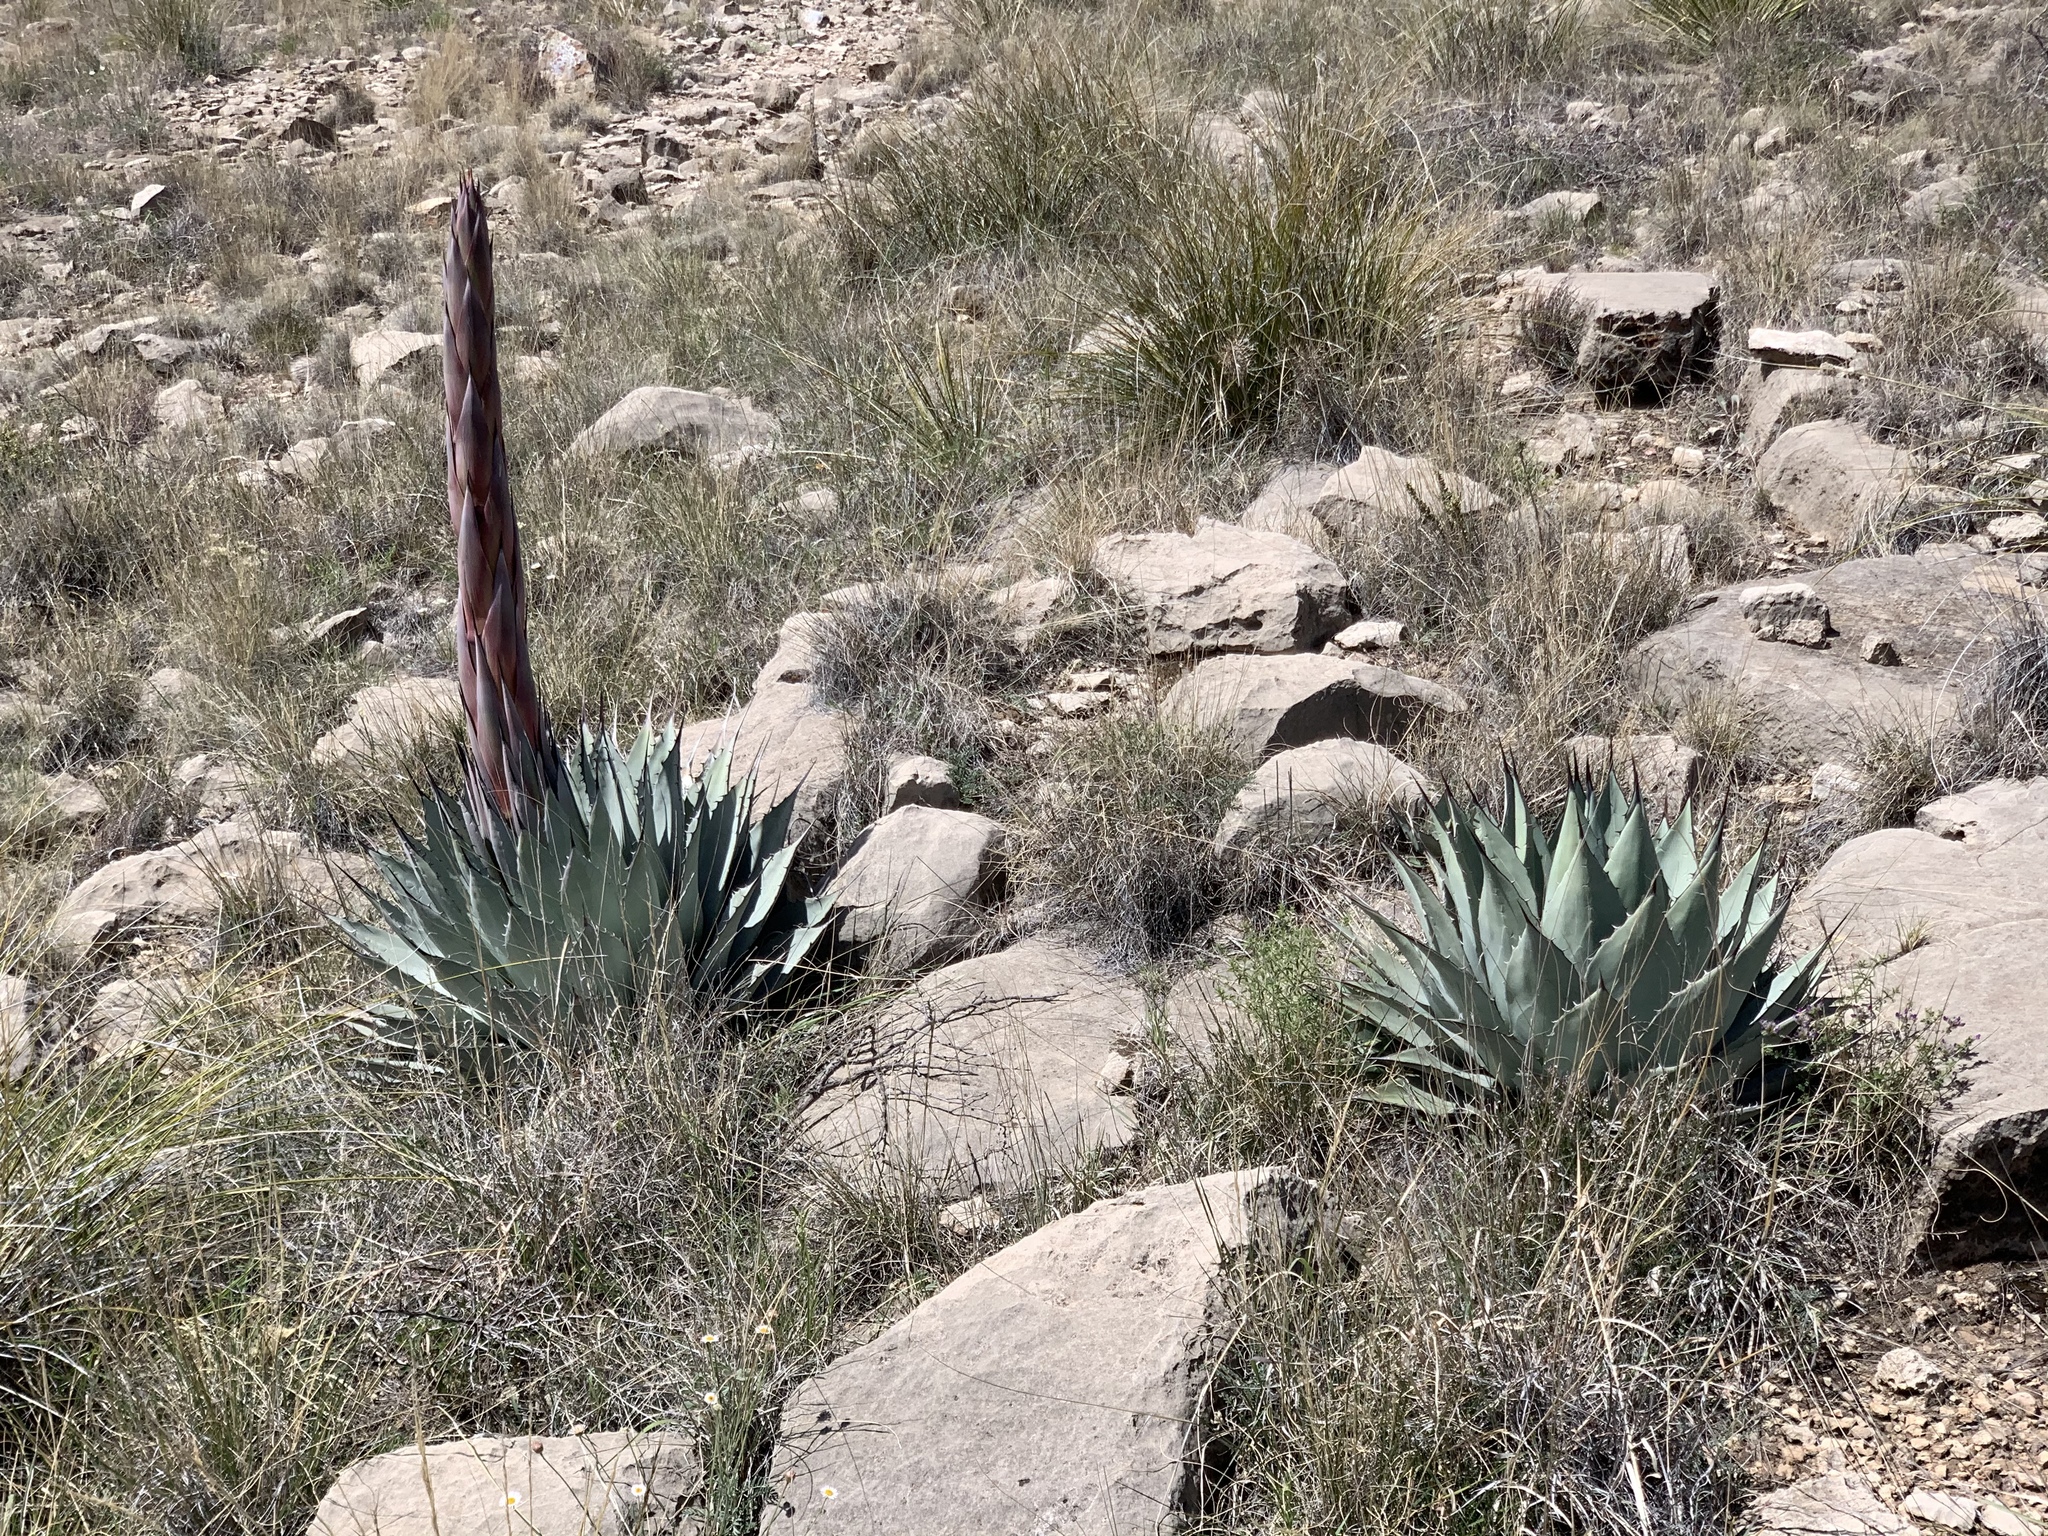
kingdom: Plantae
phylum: Tracheophyta
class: Liliopsida
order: Asparagales
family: Asparagaceae
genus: Agave
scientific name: Agave parryi
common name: Parry's agave
